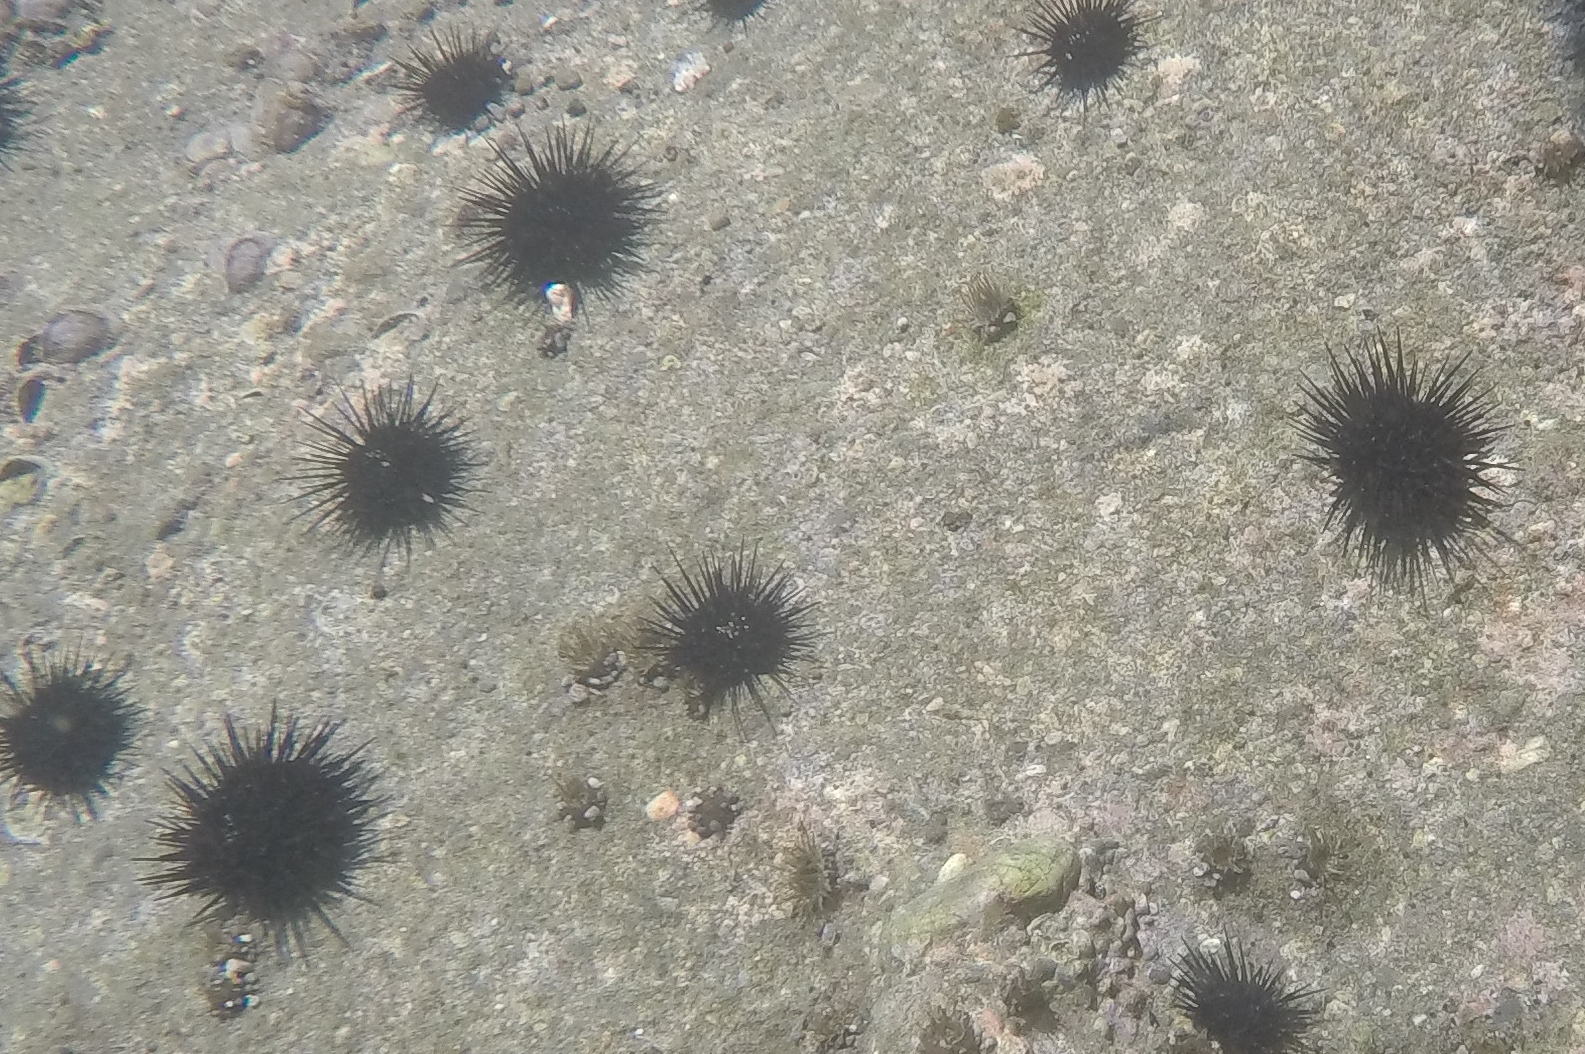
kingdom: Animalia
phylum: Echinodermata
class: Echinoidea
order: Camarodonta
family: Echinometridae
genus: Echinometra
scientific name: Echinometra vanbrunti
